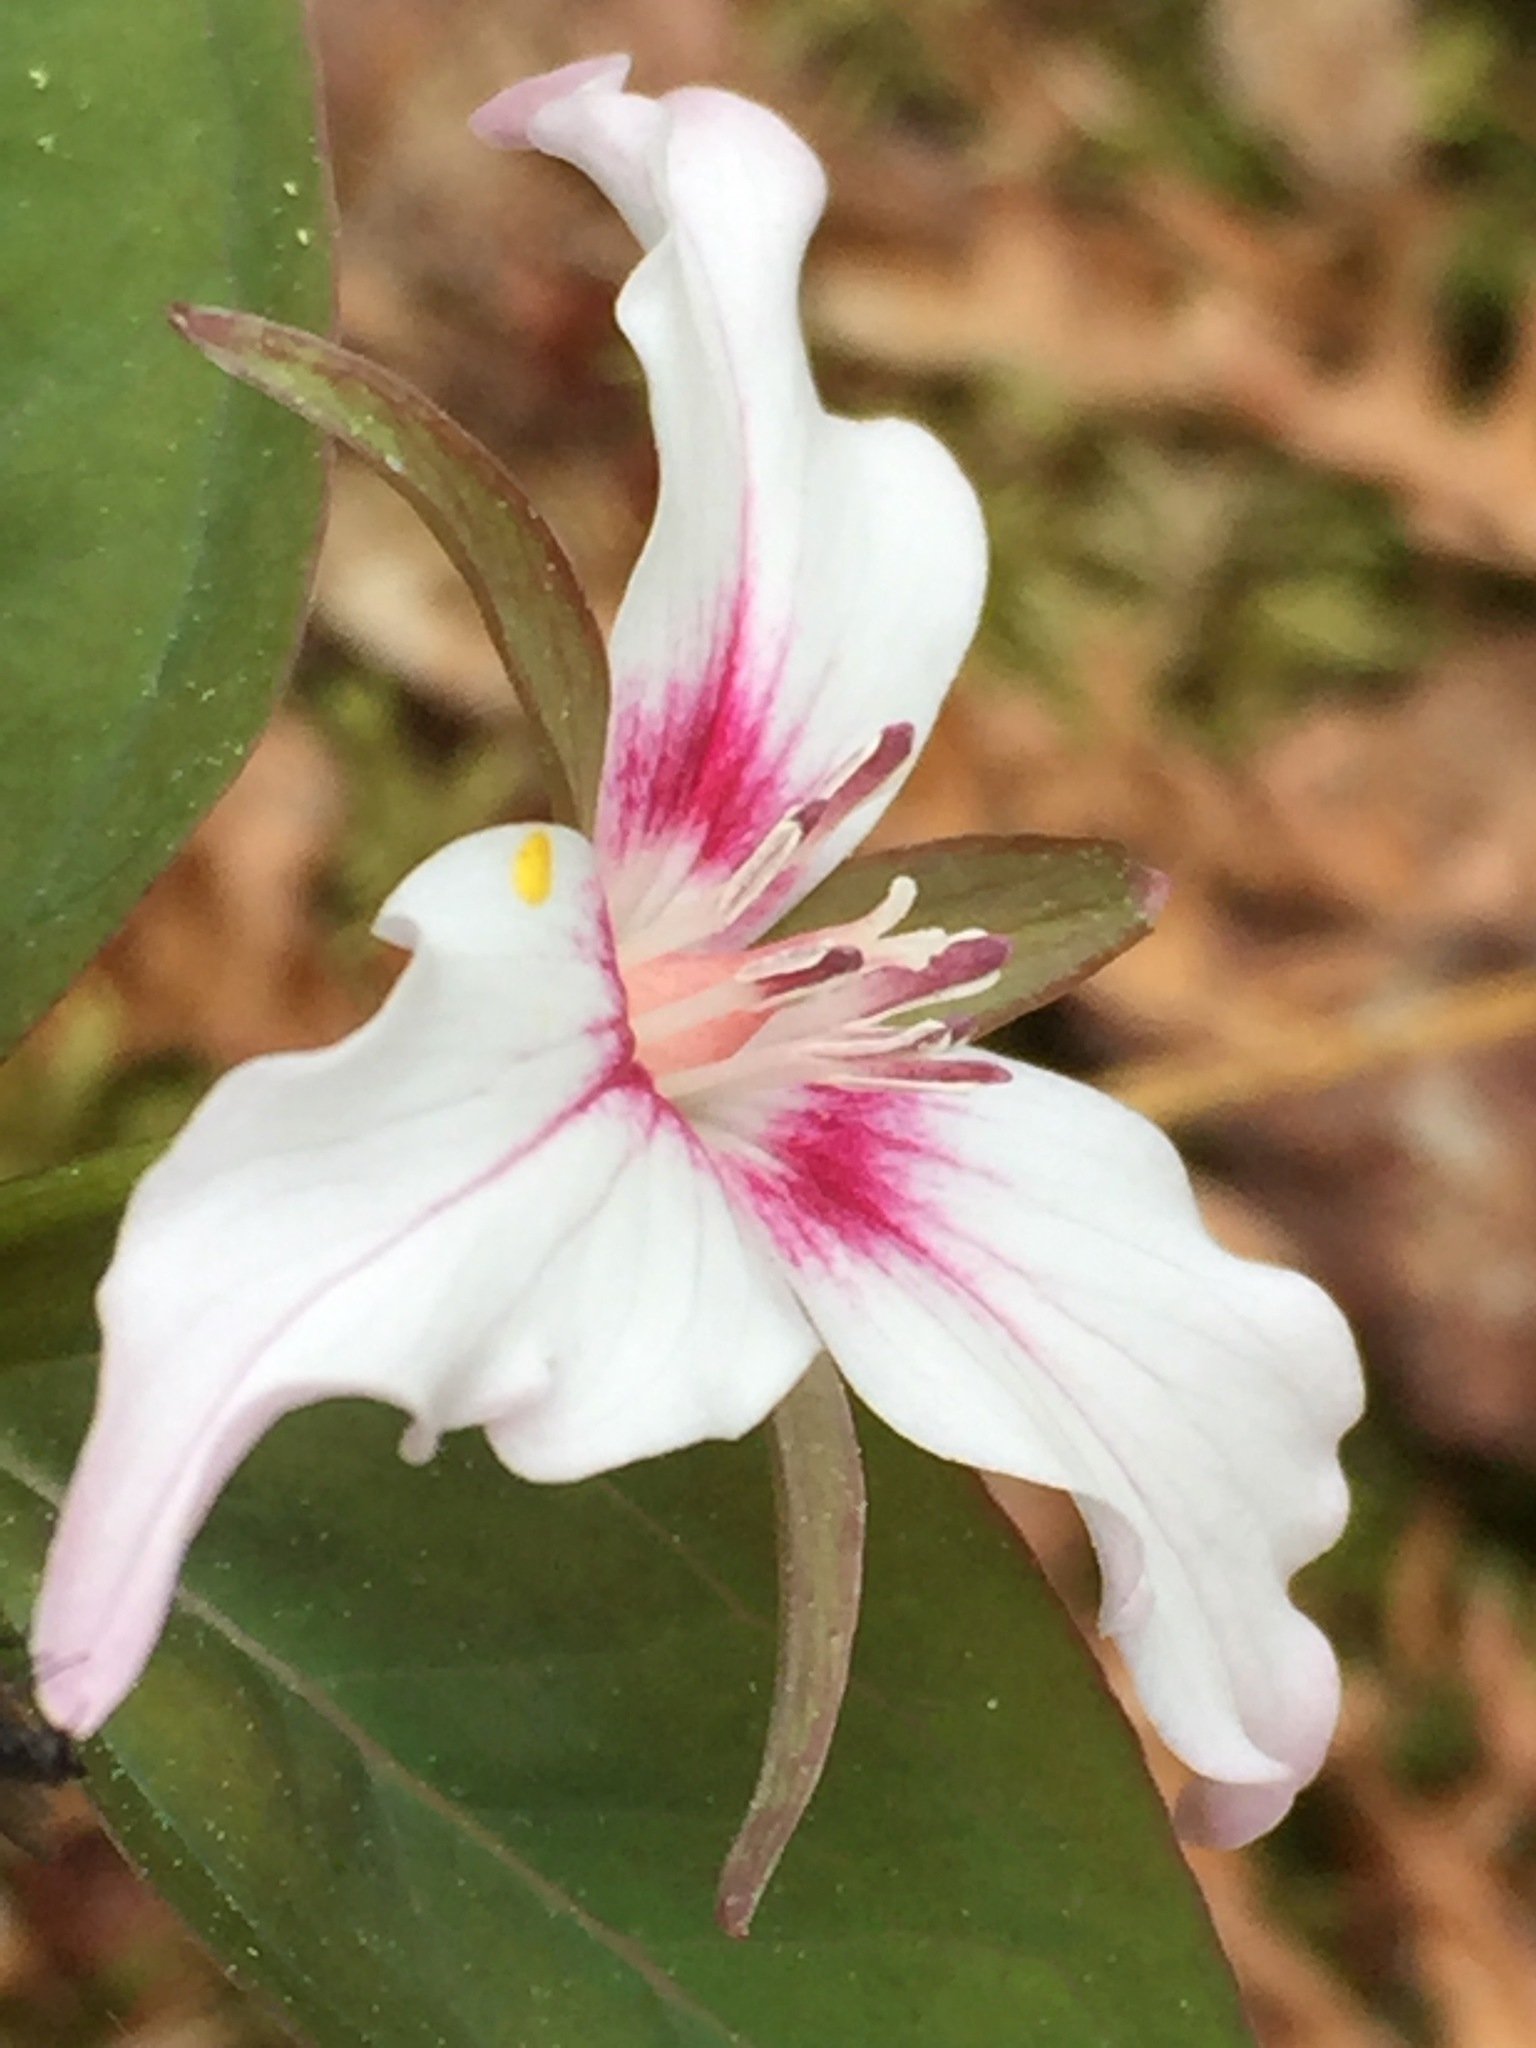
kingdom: Plantae
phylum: Tracheophyta
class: Liliopsida
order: Liliales
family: Melanthiaceae
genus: Trillium
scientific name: Trillium undulatum
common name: Paint trillium
